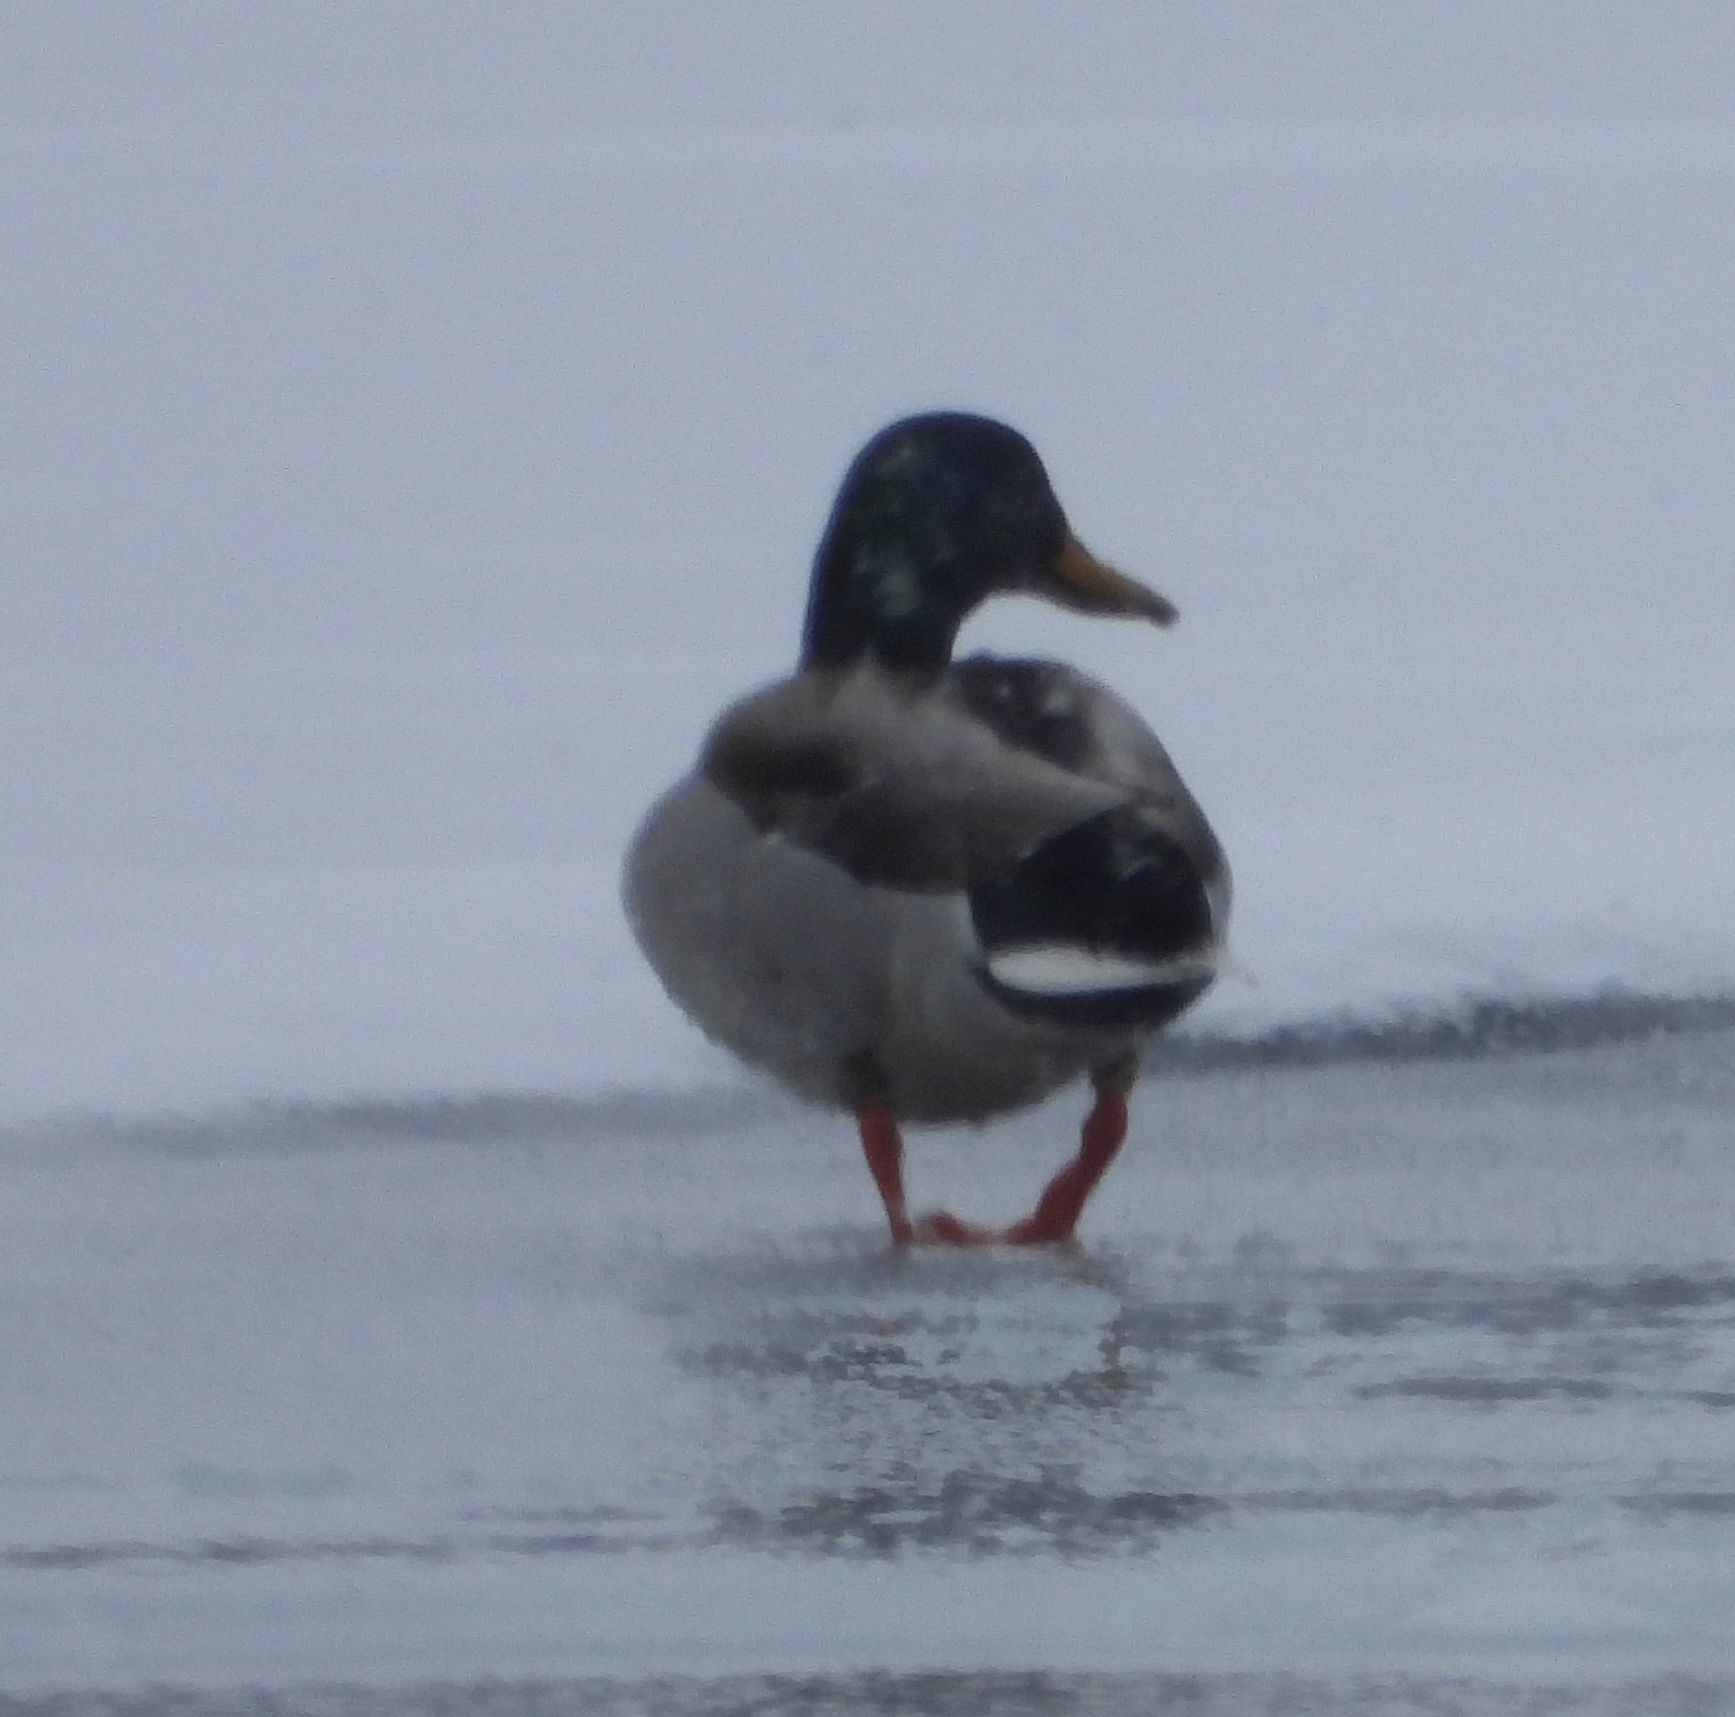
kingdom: Animalia
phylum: Chordata
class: Aves
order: Anseriformes
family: Anatidae
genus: Anas
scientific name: Anas platyrhynchos
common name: Mallard
